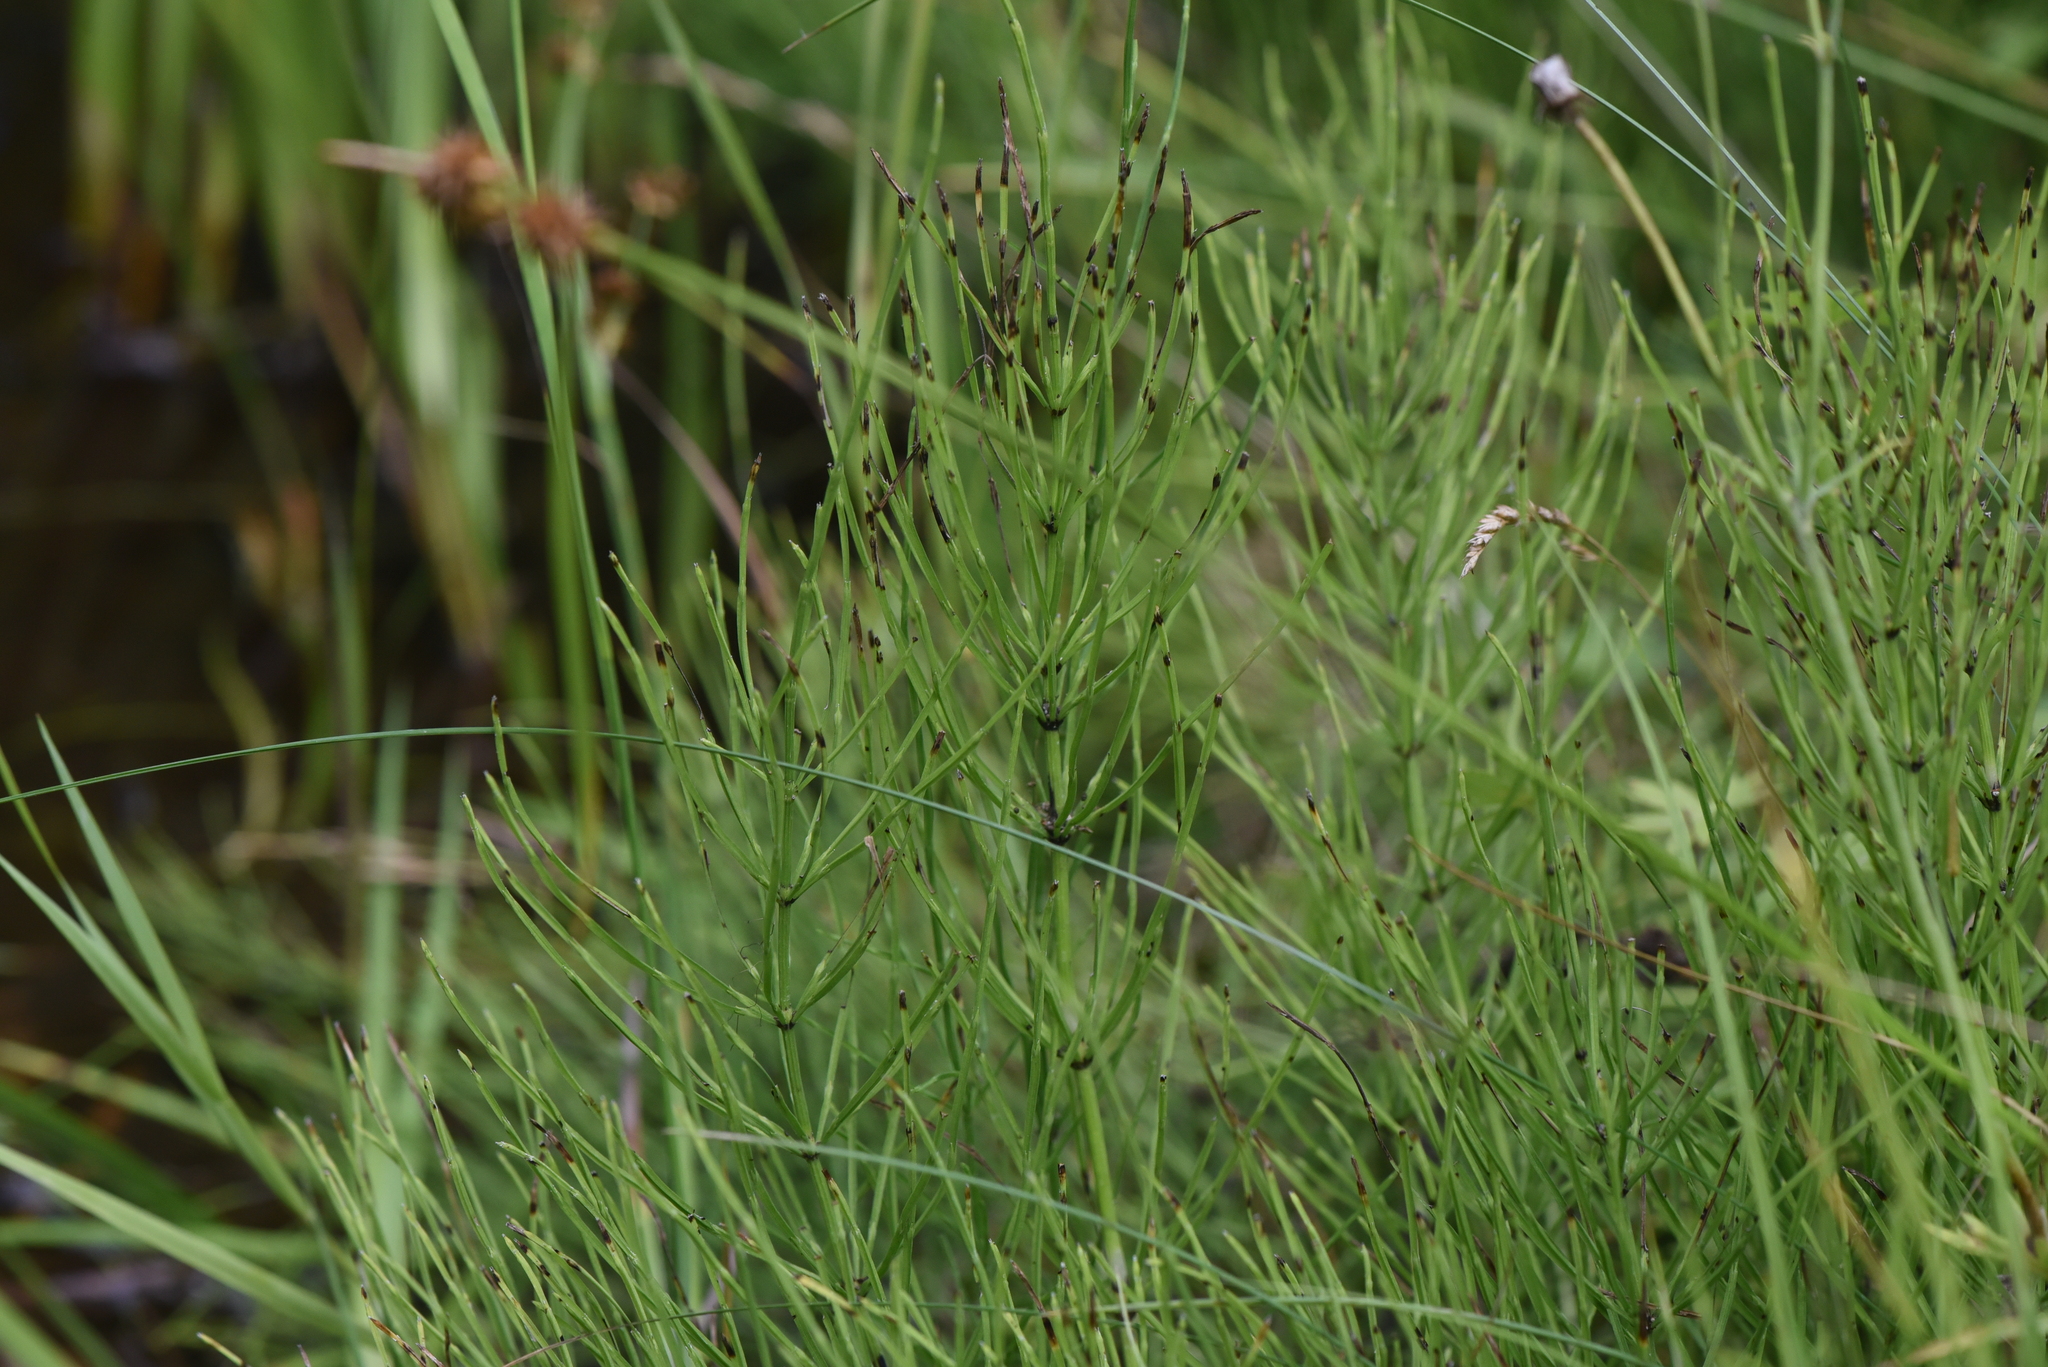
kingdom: Plantae
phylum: Tracheophyta
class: Polypodiopsida
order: Equisetales
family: Equisetaceae
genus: Equisetum
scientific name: Equisetum arvense
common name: Field horsetail
